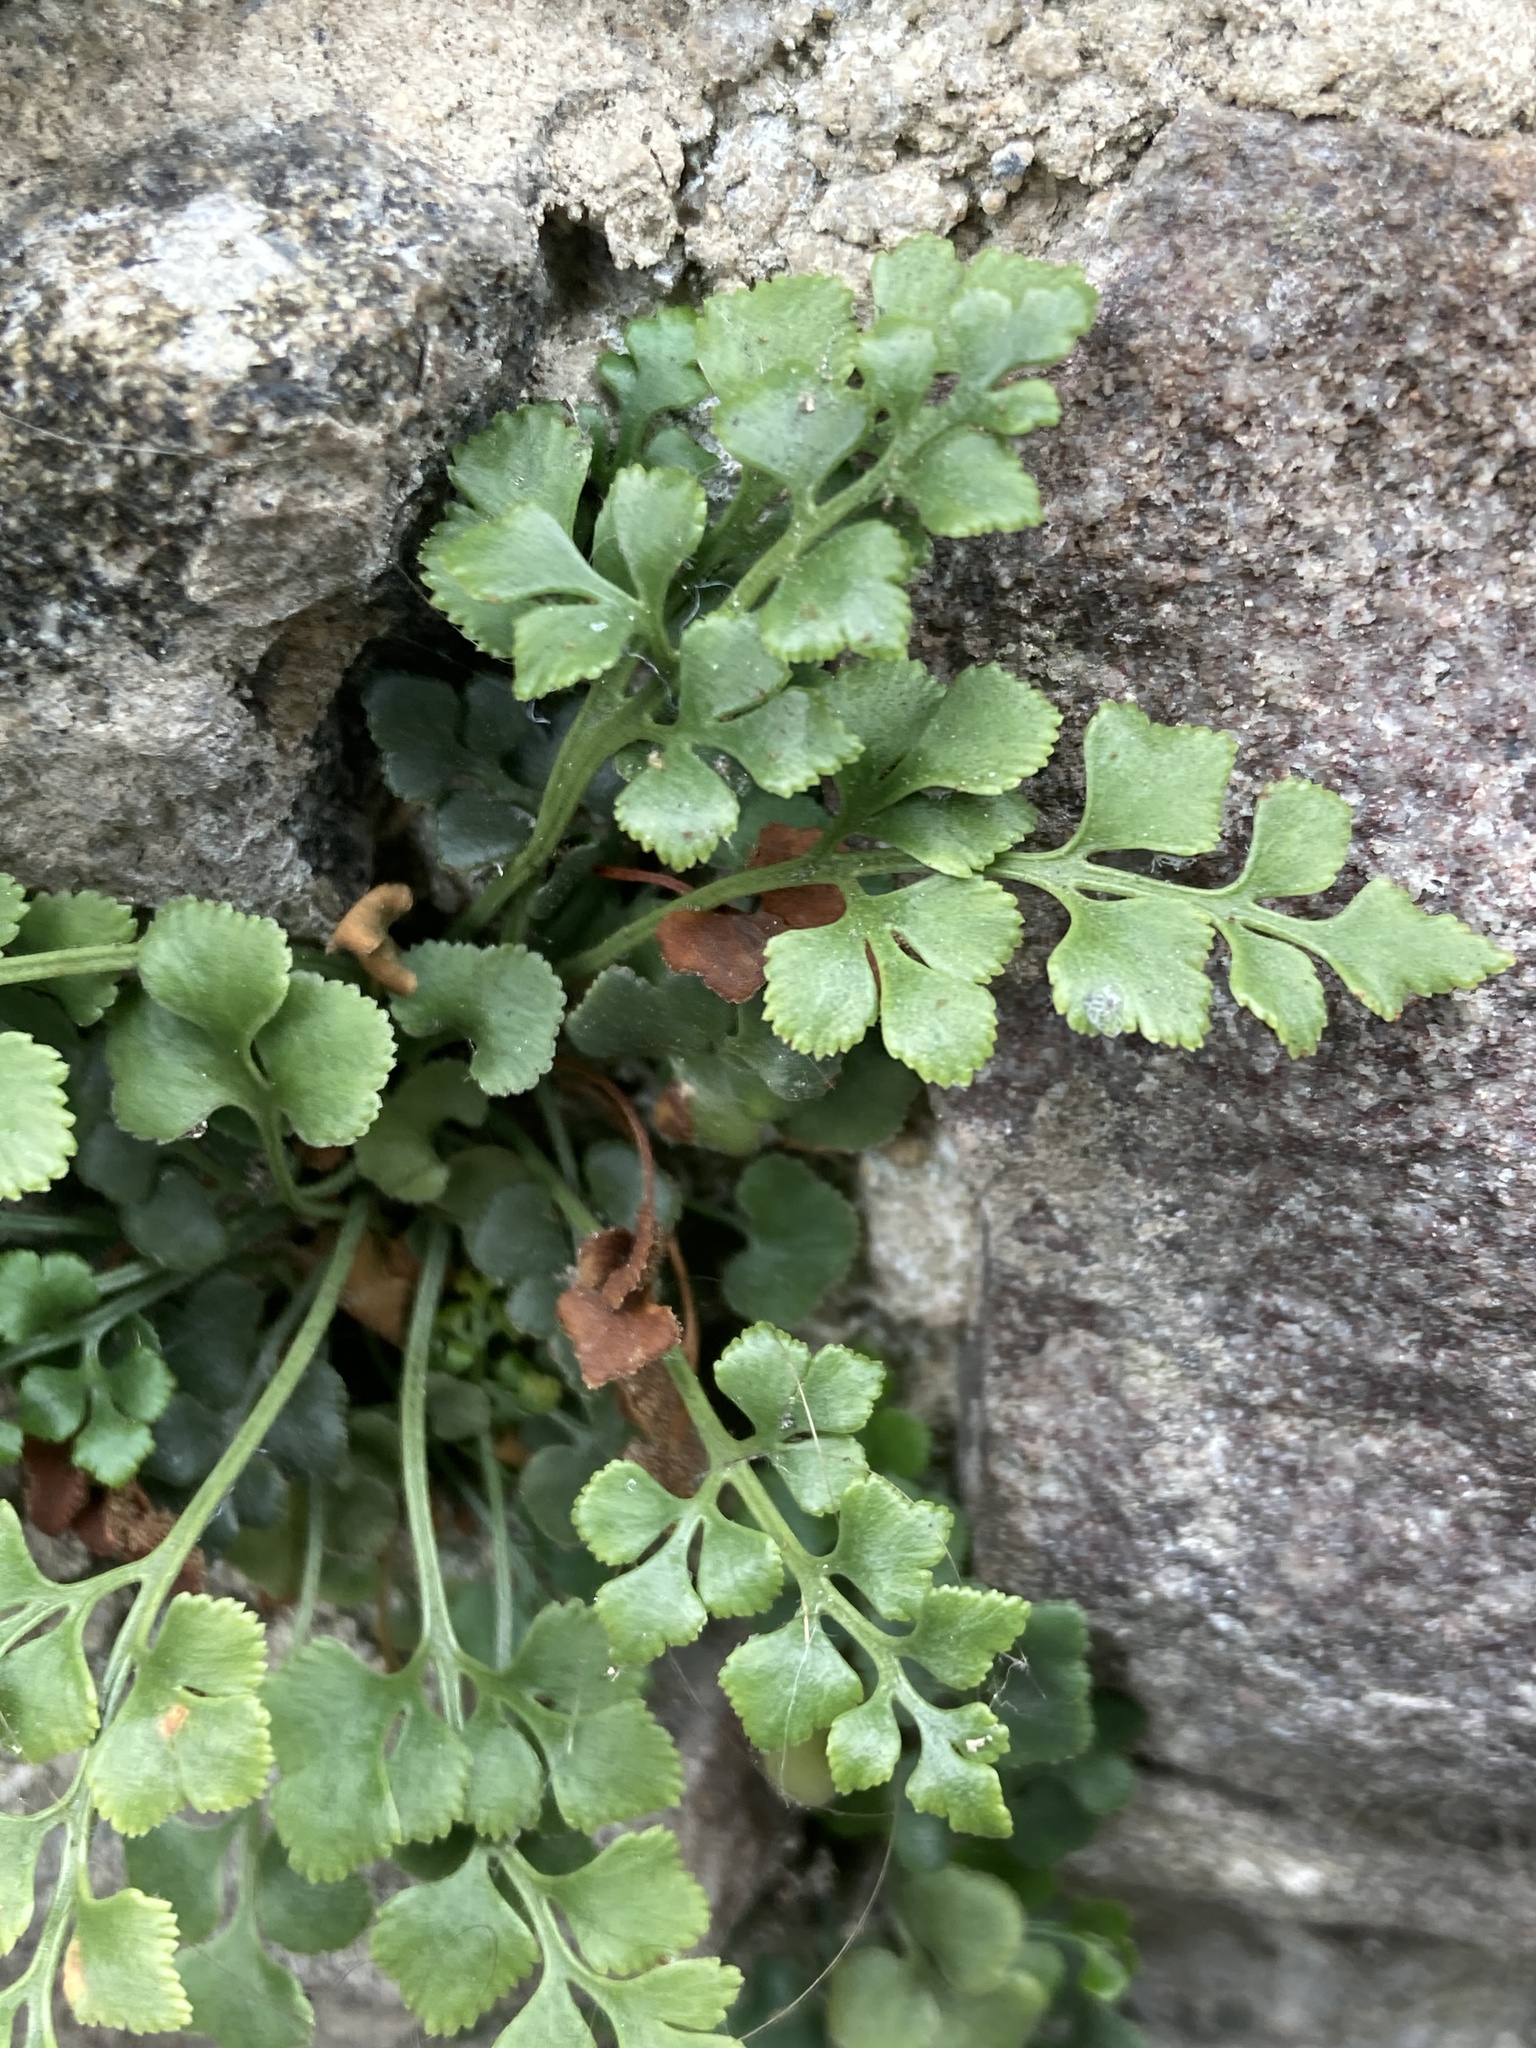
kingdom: Plantae
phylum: Tracheophyta
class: Polypodiopsida
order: Polypodiales
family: Aspleniaceae
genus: Asplenium
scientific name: Asplenium ruta-muraria
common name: Wall-rue
